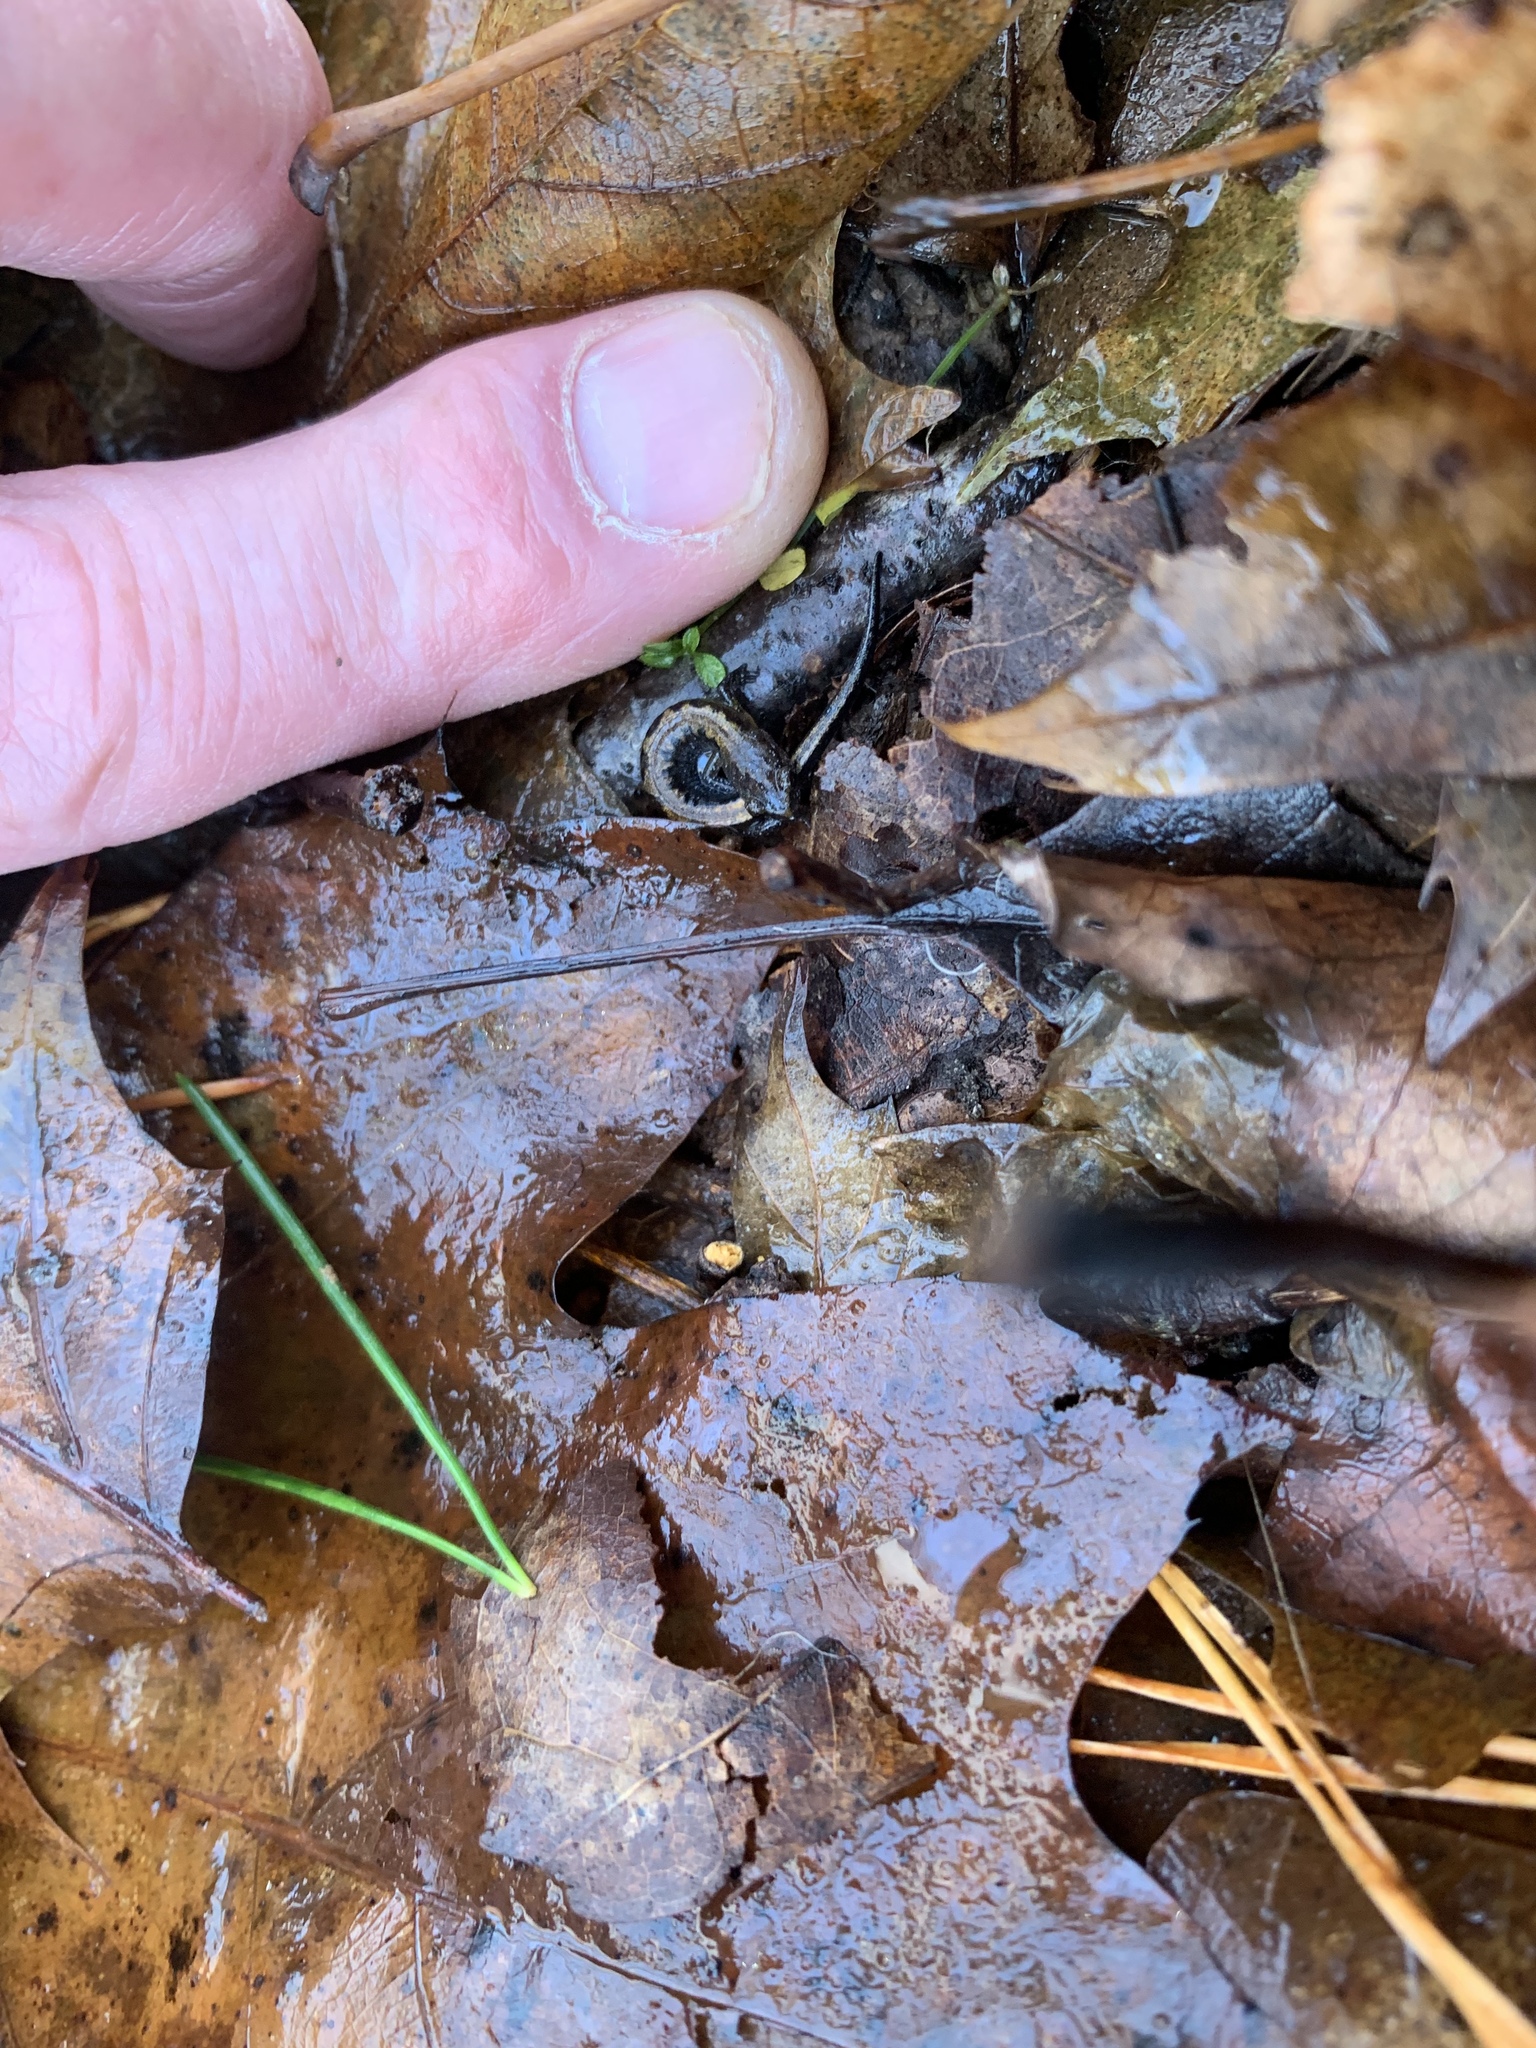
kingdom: Animalia
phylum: Chordata
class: Amphibia
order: Caudata
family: Plethodontidae
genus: Plethodon
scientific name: Plethodon dorsalis
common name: Northern zigzag salamander
